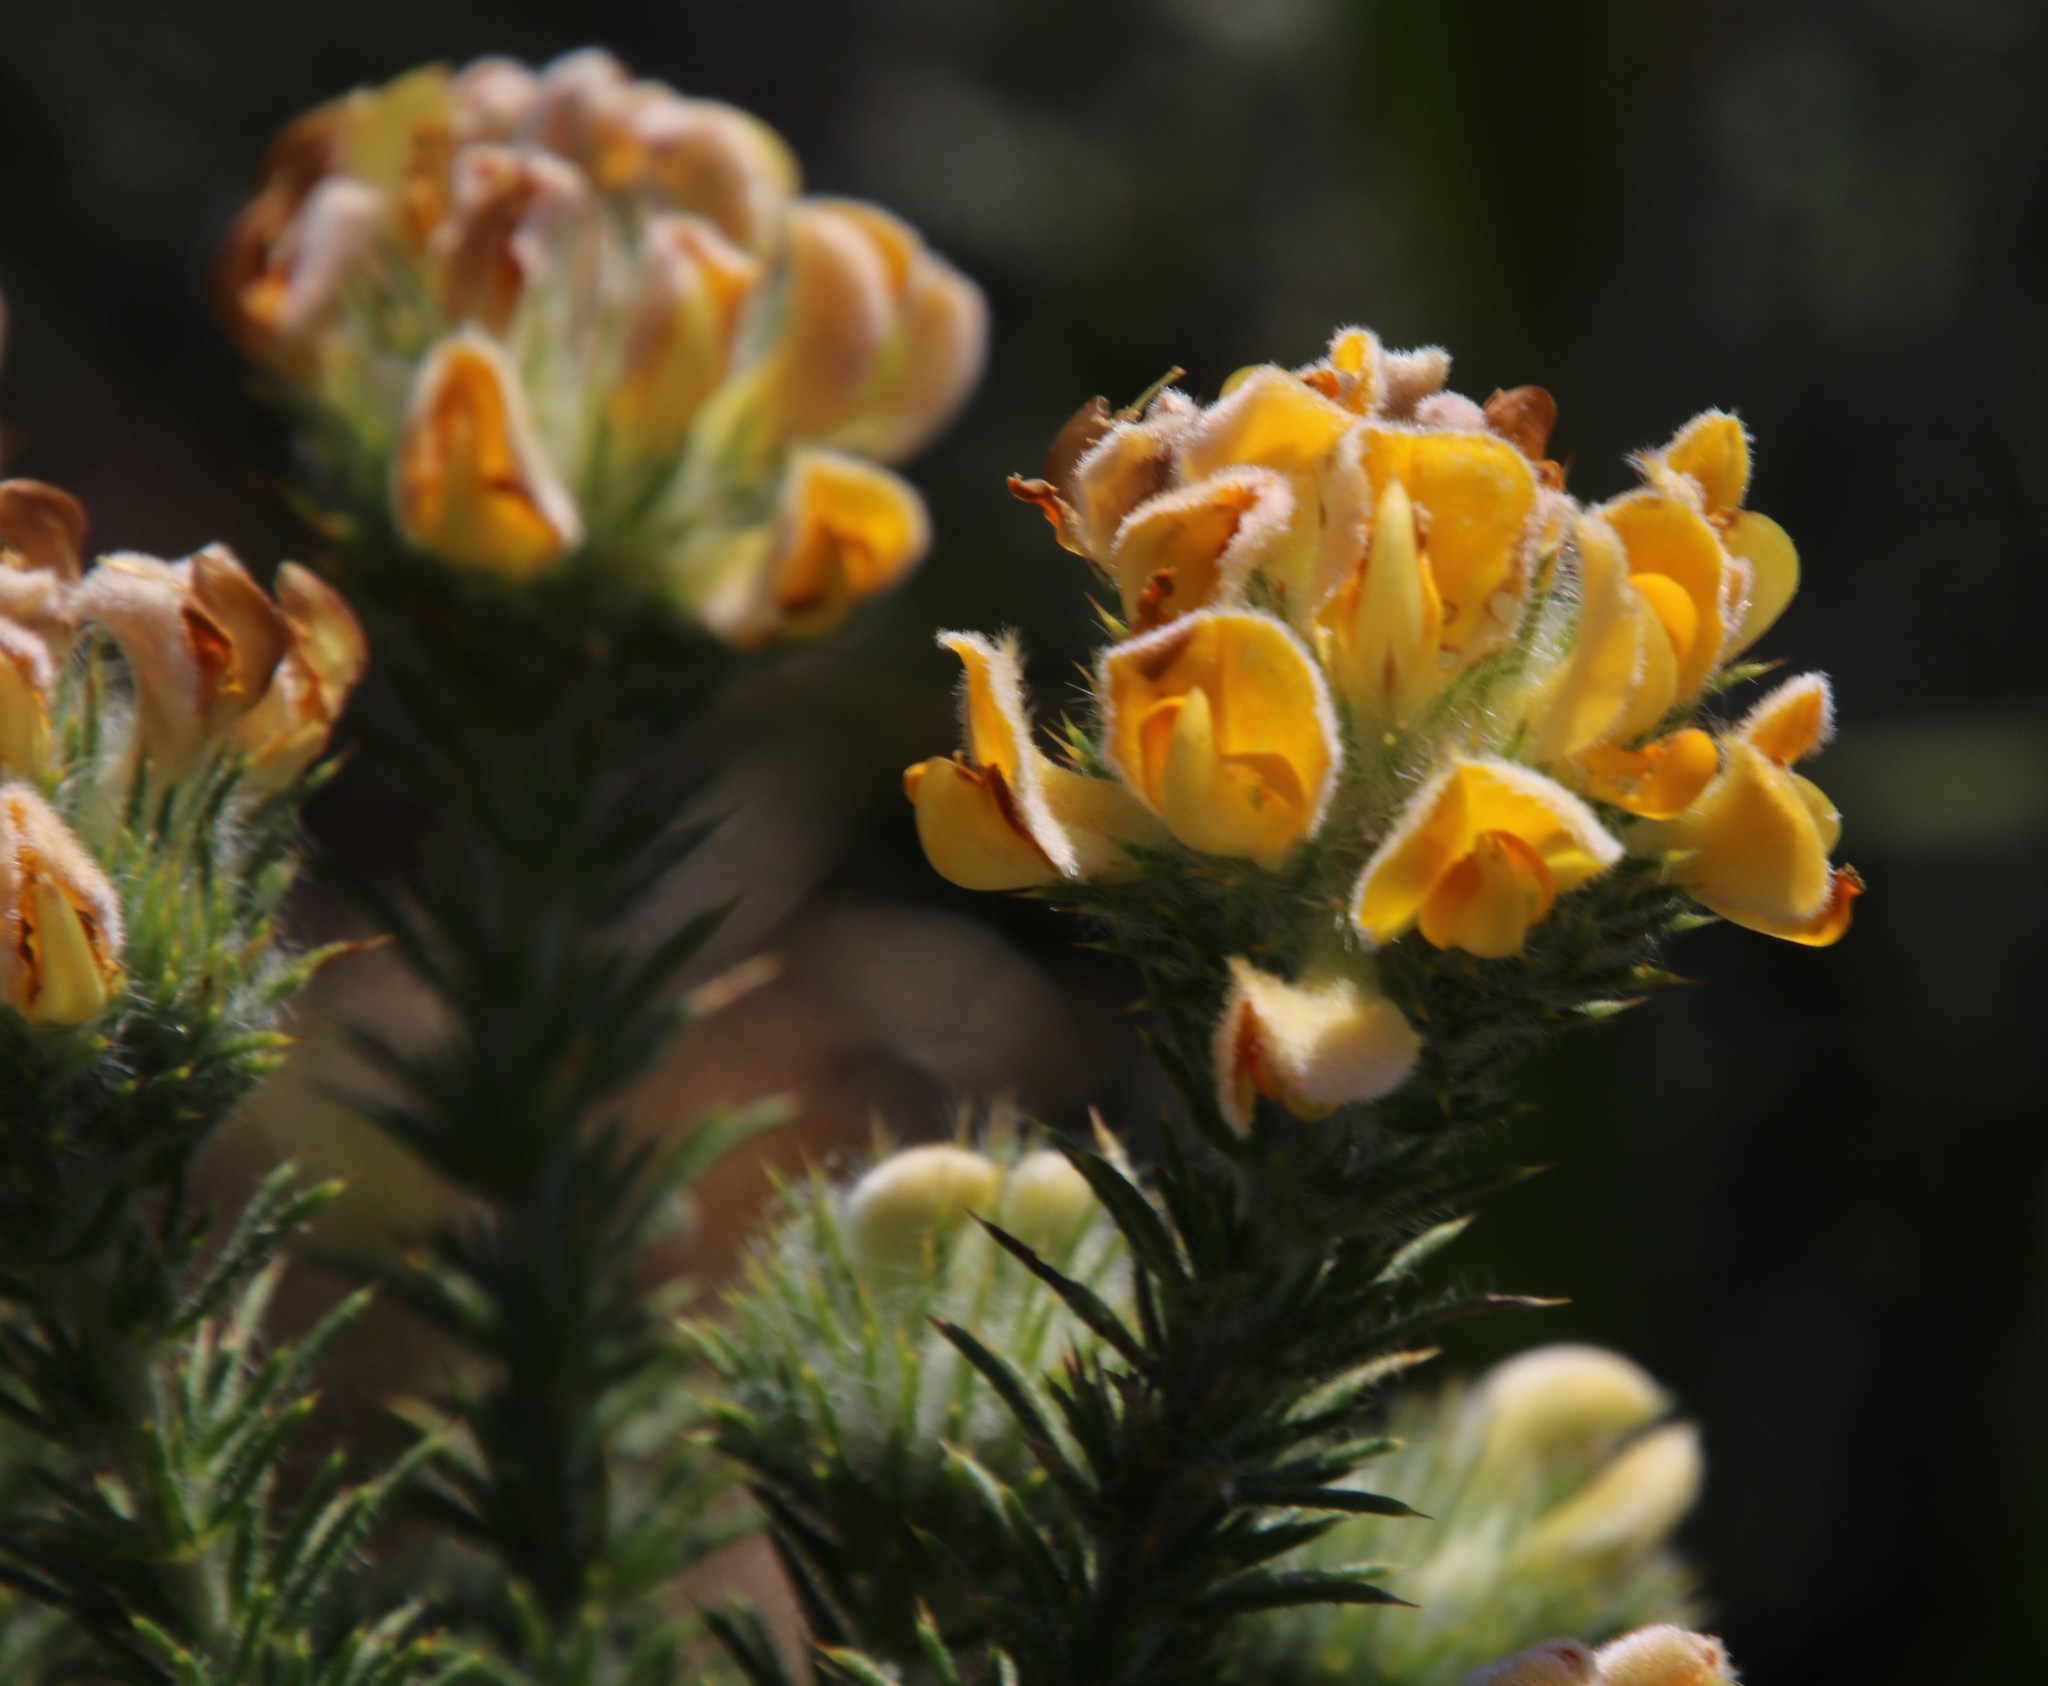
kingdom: Plantae
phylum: Tracheophyta
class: Magnoliopsida
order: Fabales
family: Fabaceae
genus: Aspalathus
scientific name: Aspalathus chenopoda
